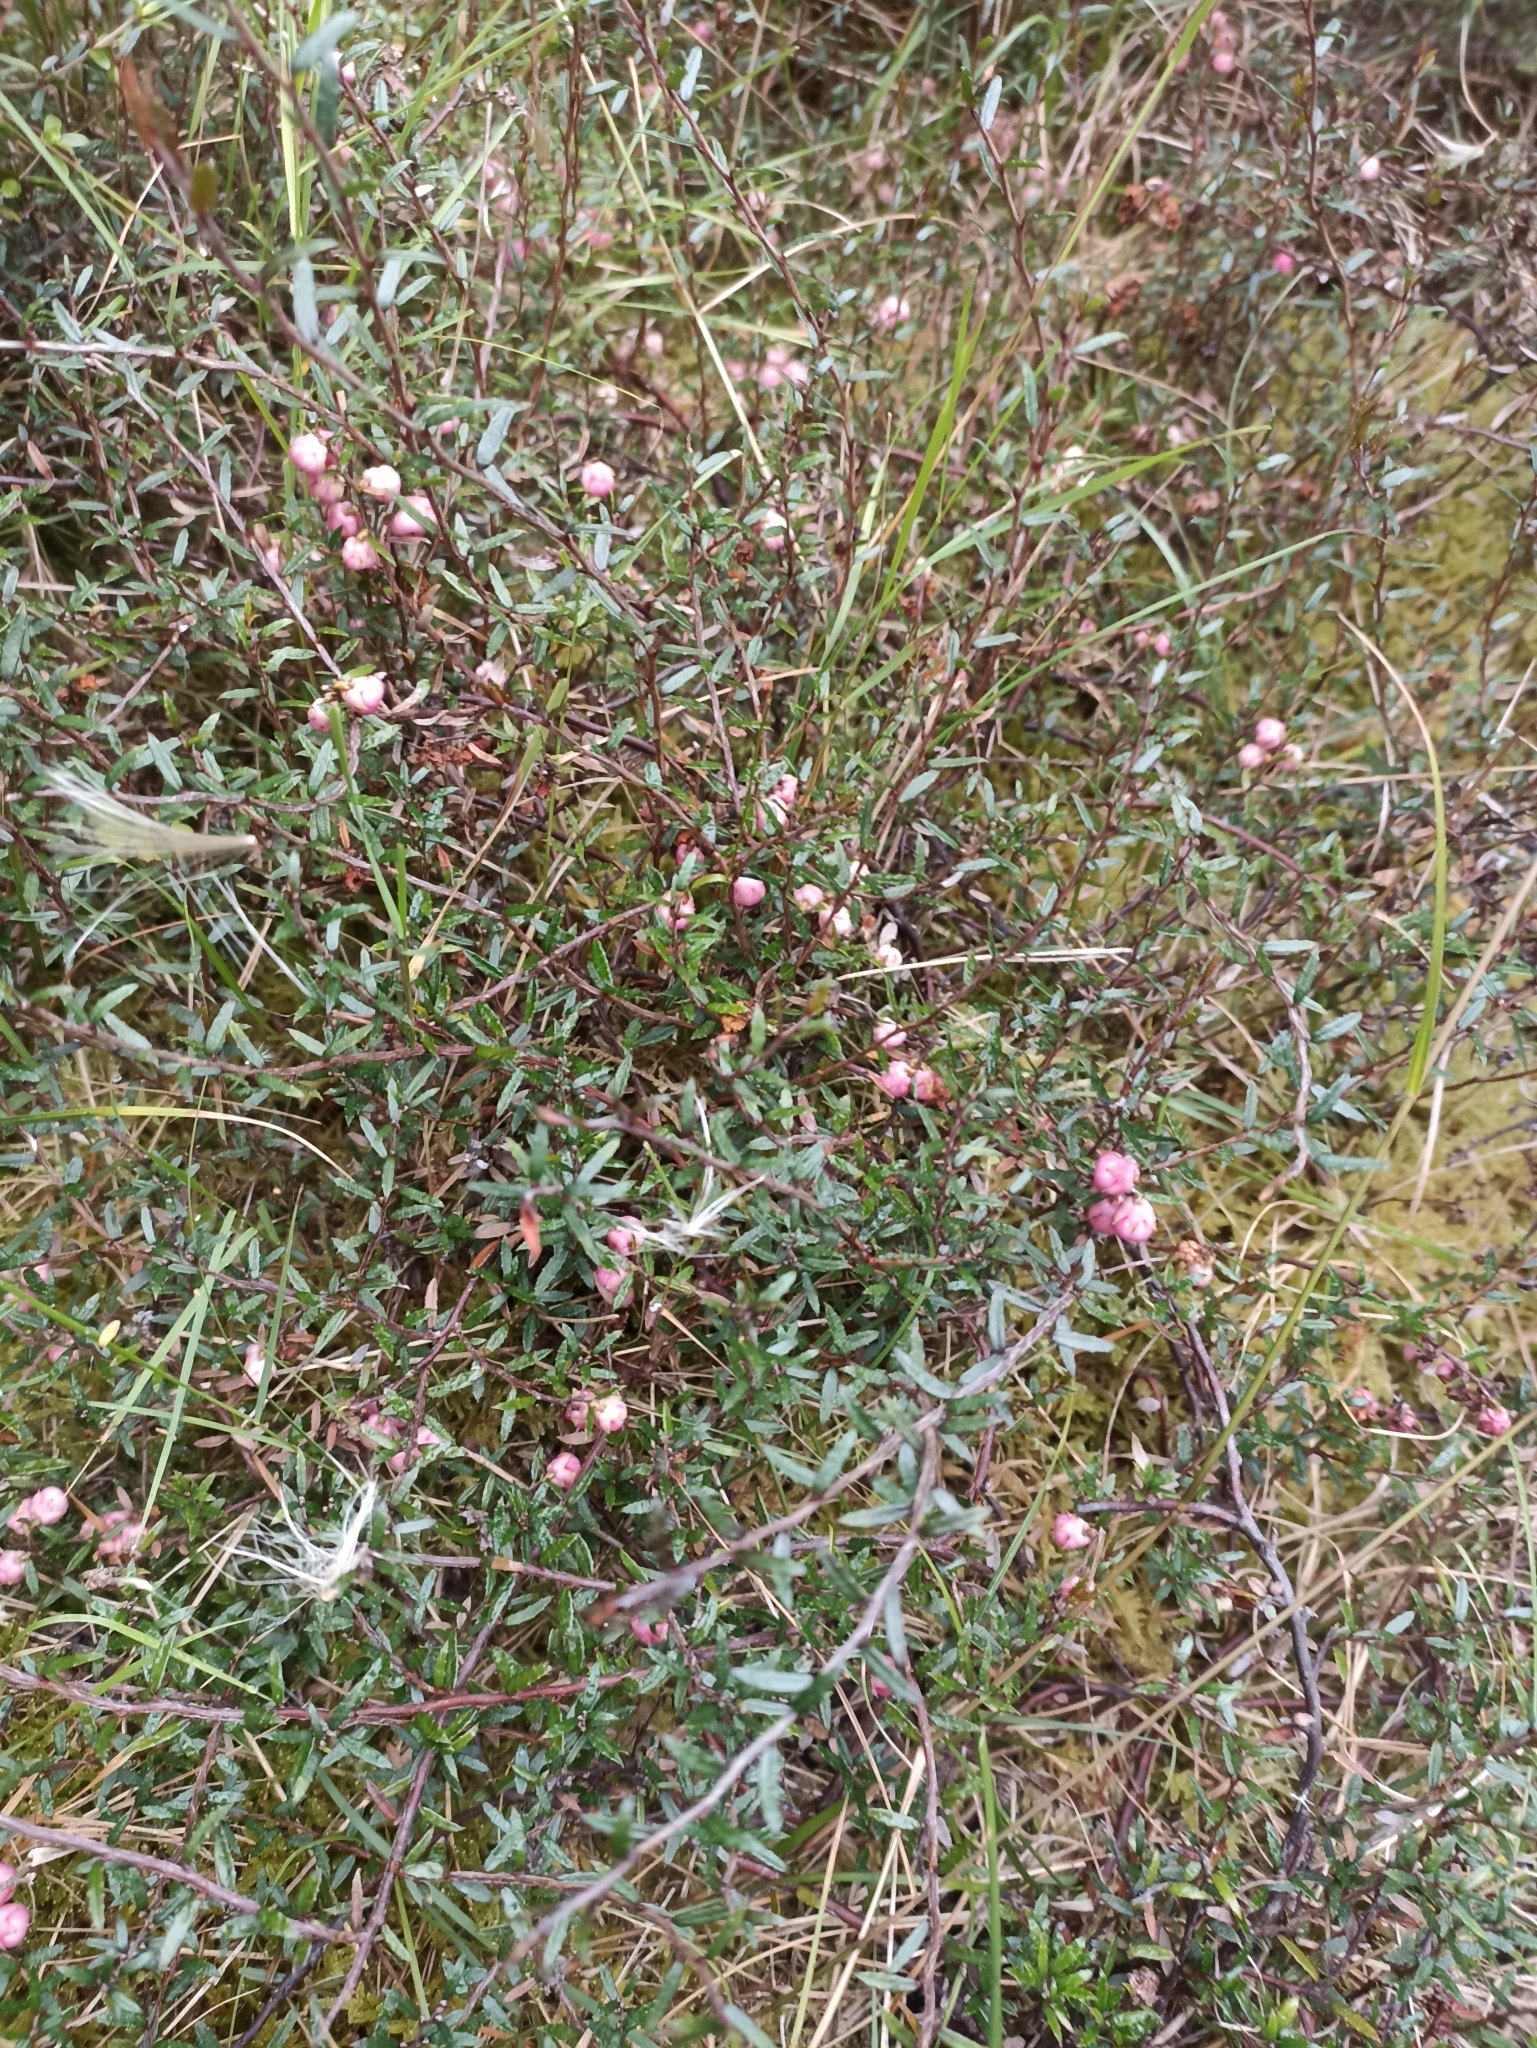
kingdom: Plantae
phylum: Tracheophyta
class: Magnoliopsida
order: Ericales
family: Ericaceae
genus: Gaultheria
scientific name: Gaultheria macrostigma
